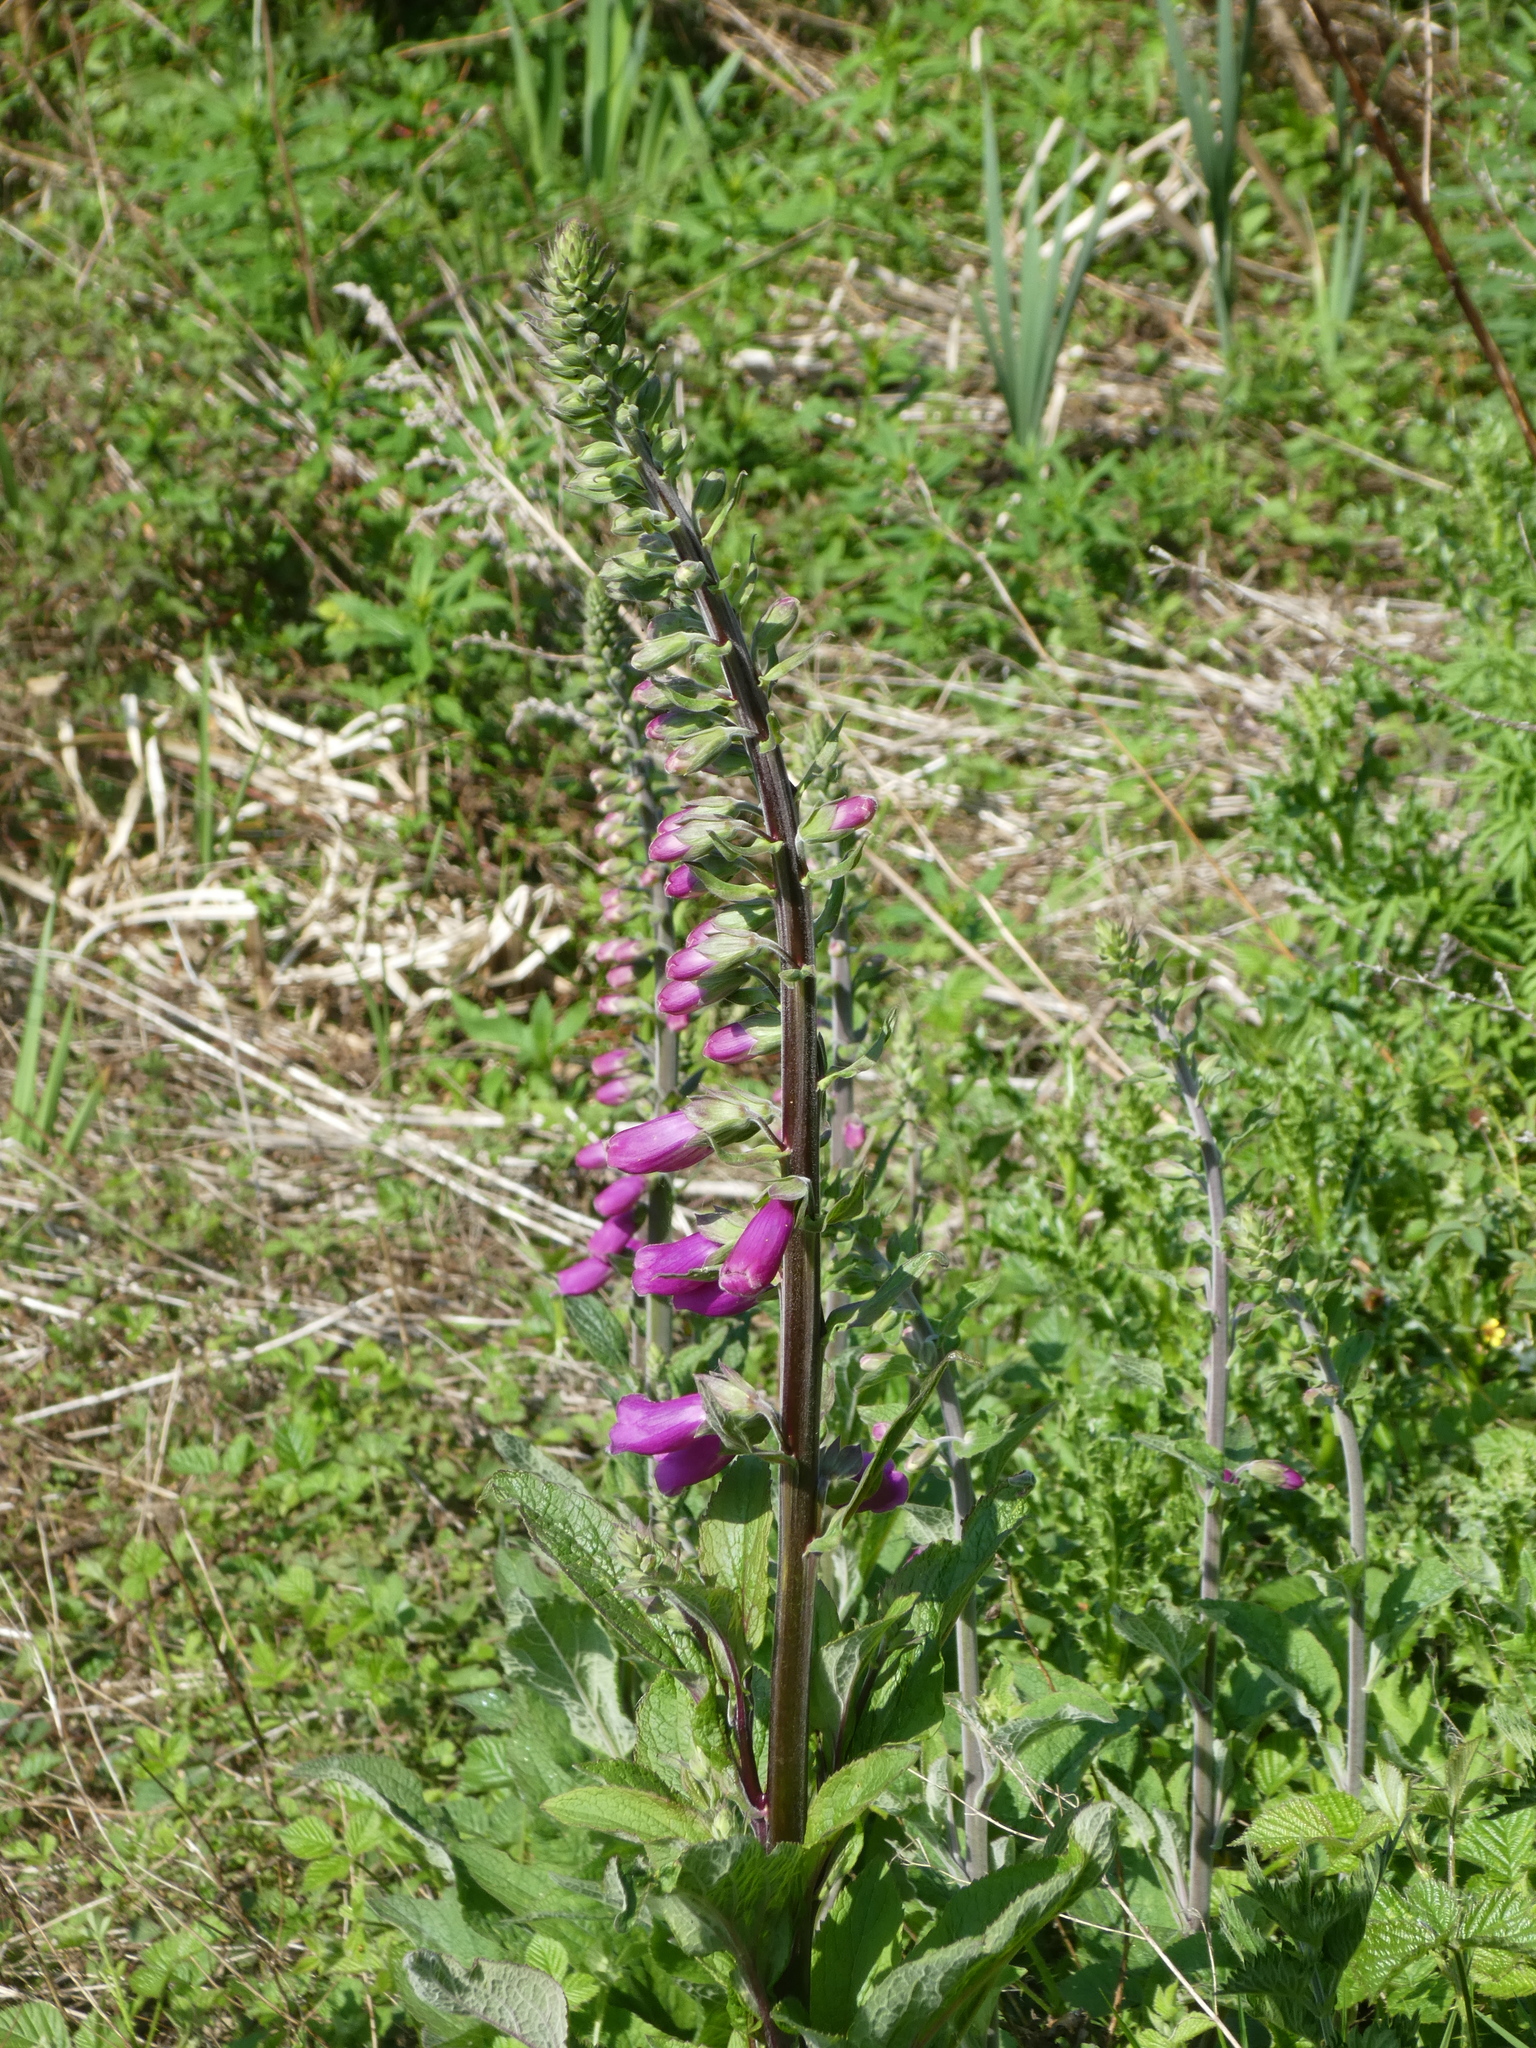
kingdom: Plantae
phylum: Tracheophyta
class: Magnoliopsida
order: Lamiales
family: Plantaginaceae
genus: Digitalis
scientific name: Digitalis purpurea
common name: Foxglove
